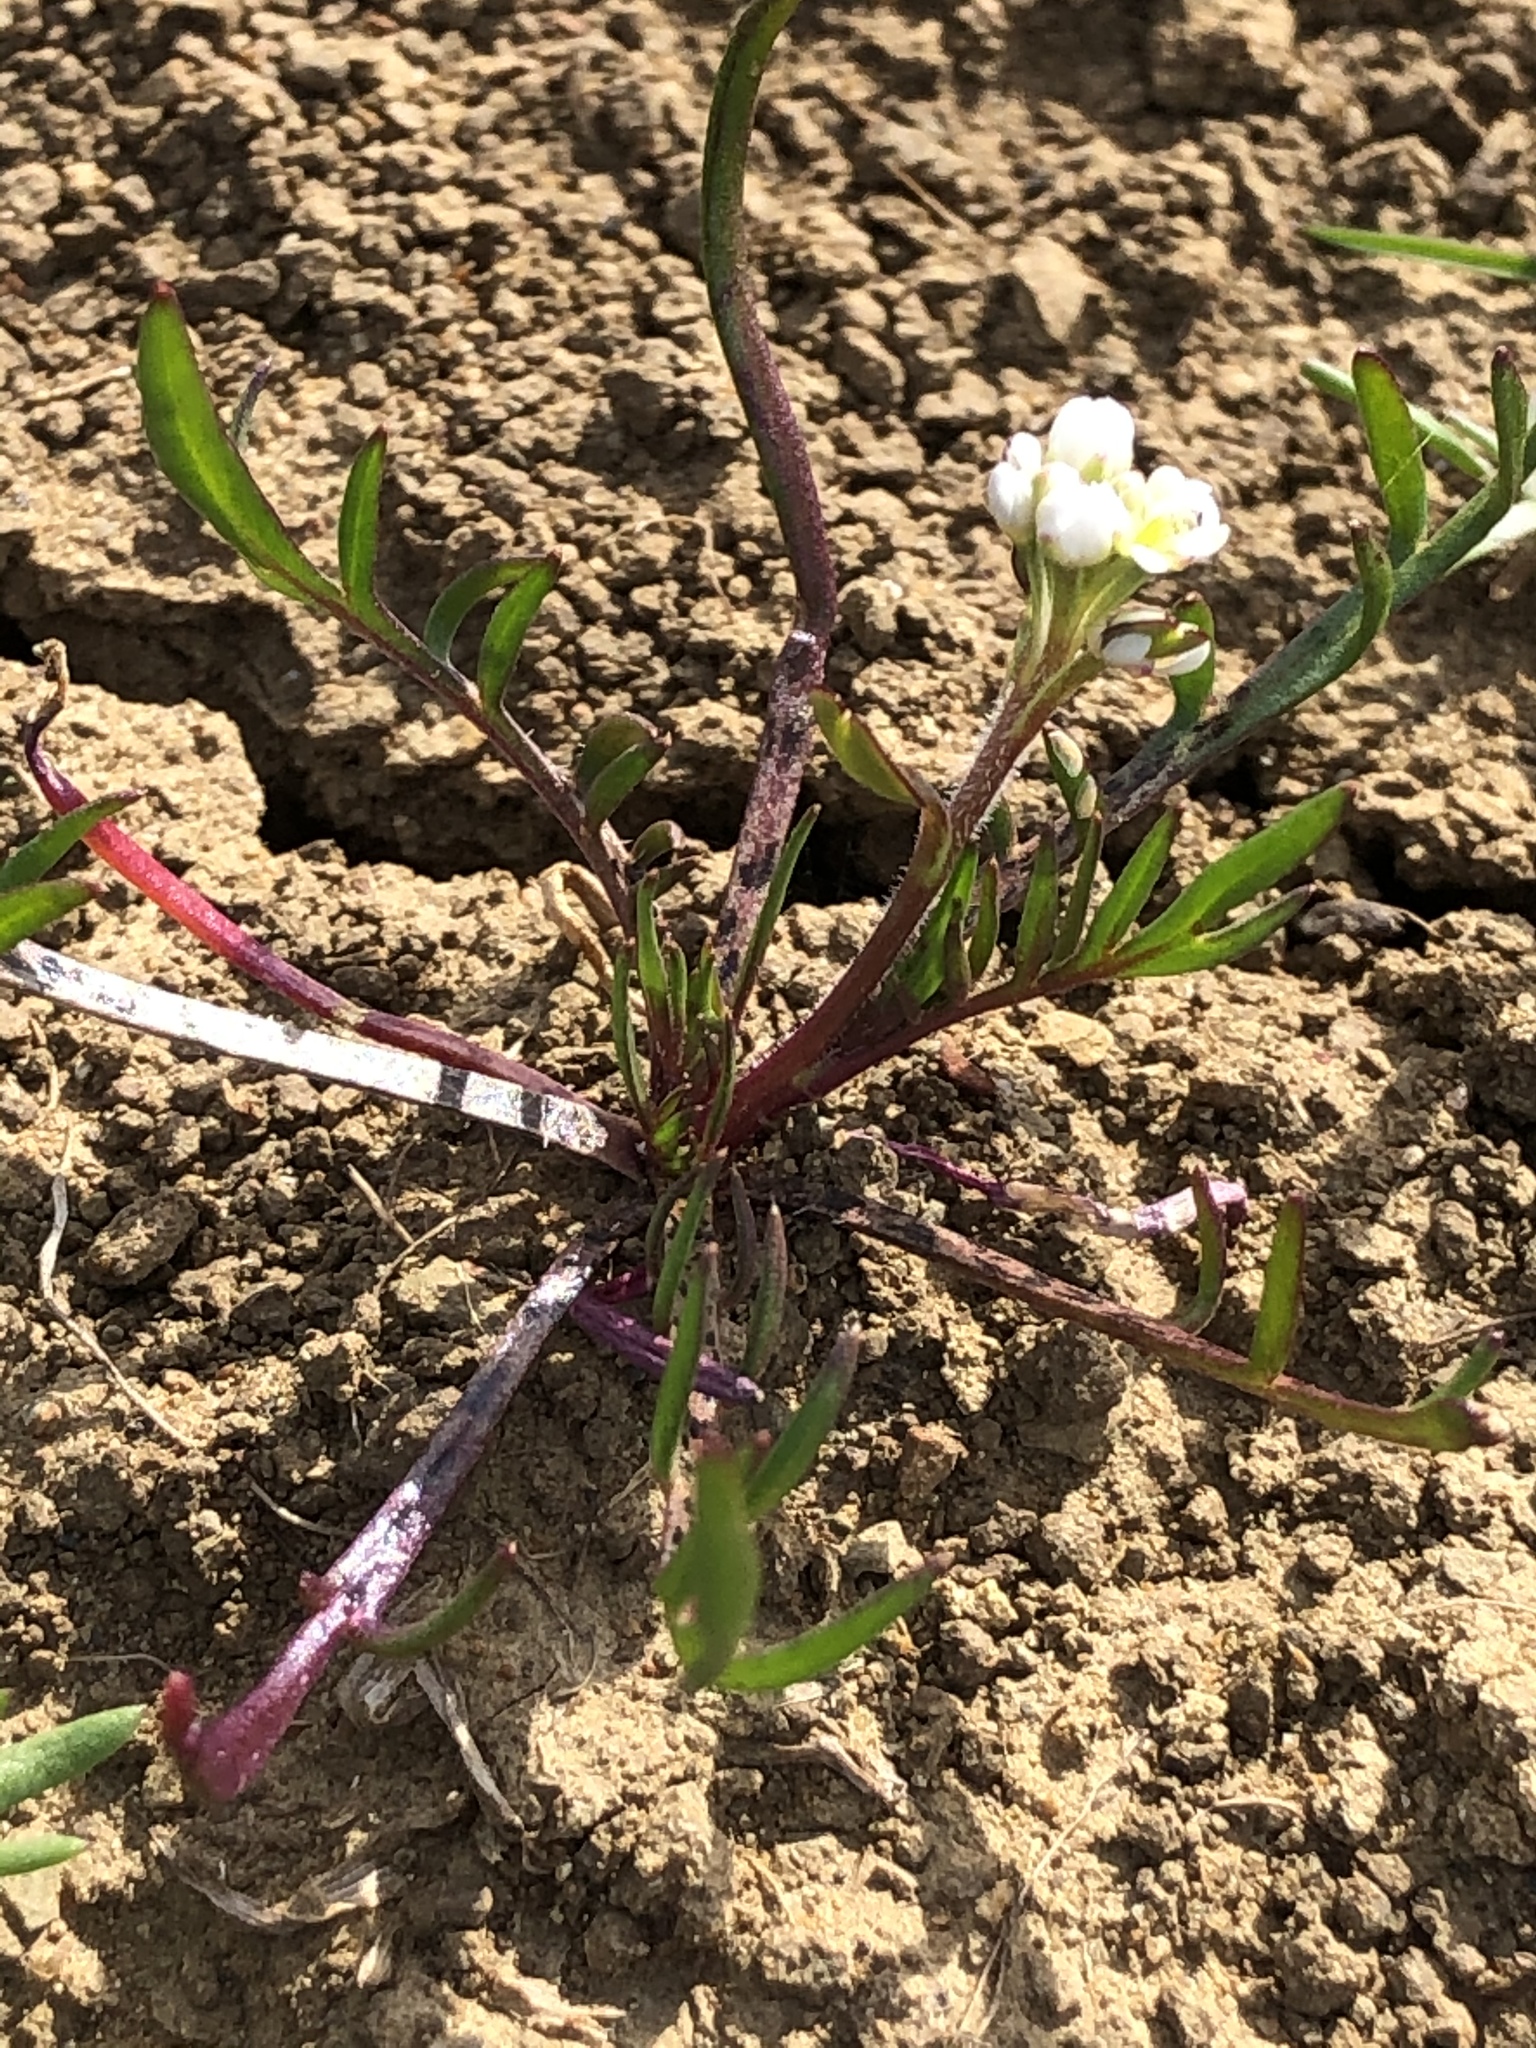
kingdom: Plantae
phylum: Tracheophyta
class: Magnoliopsida
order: Brassicales
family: Brassicaceae
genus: Lepidium
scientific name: Lepidium nitidum
